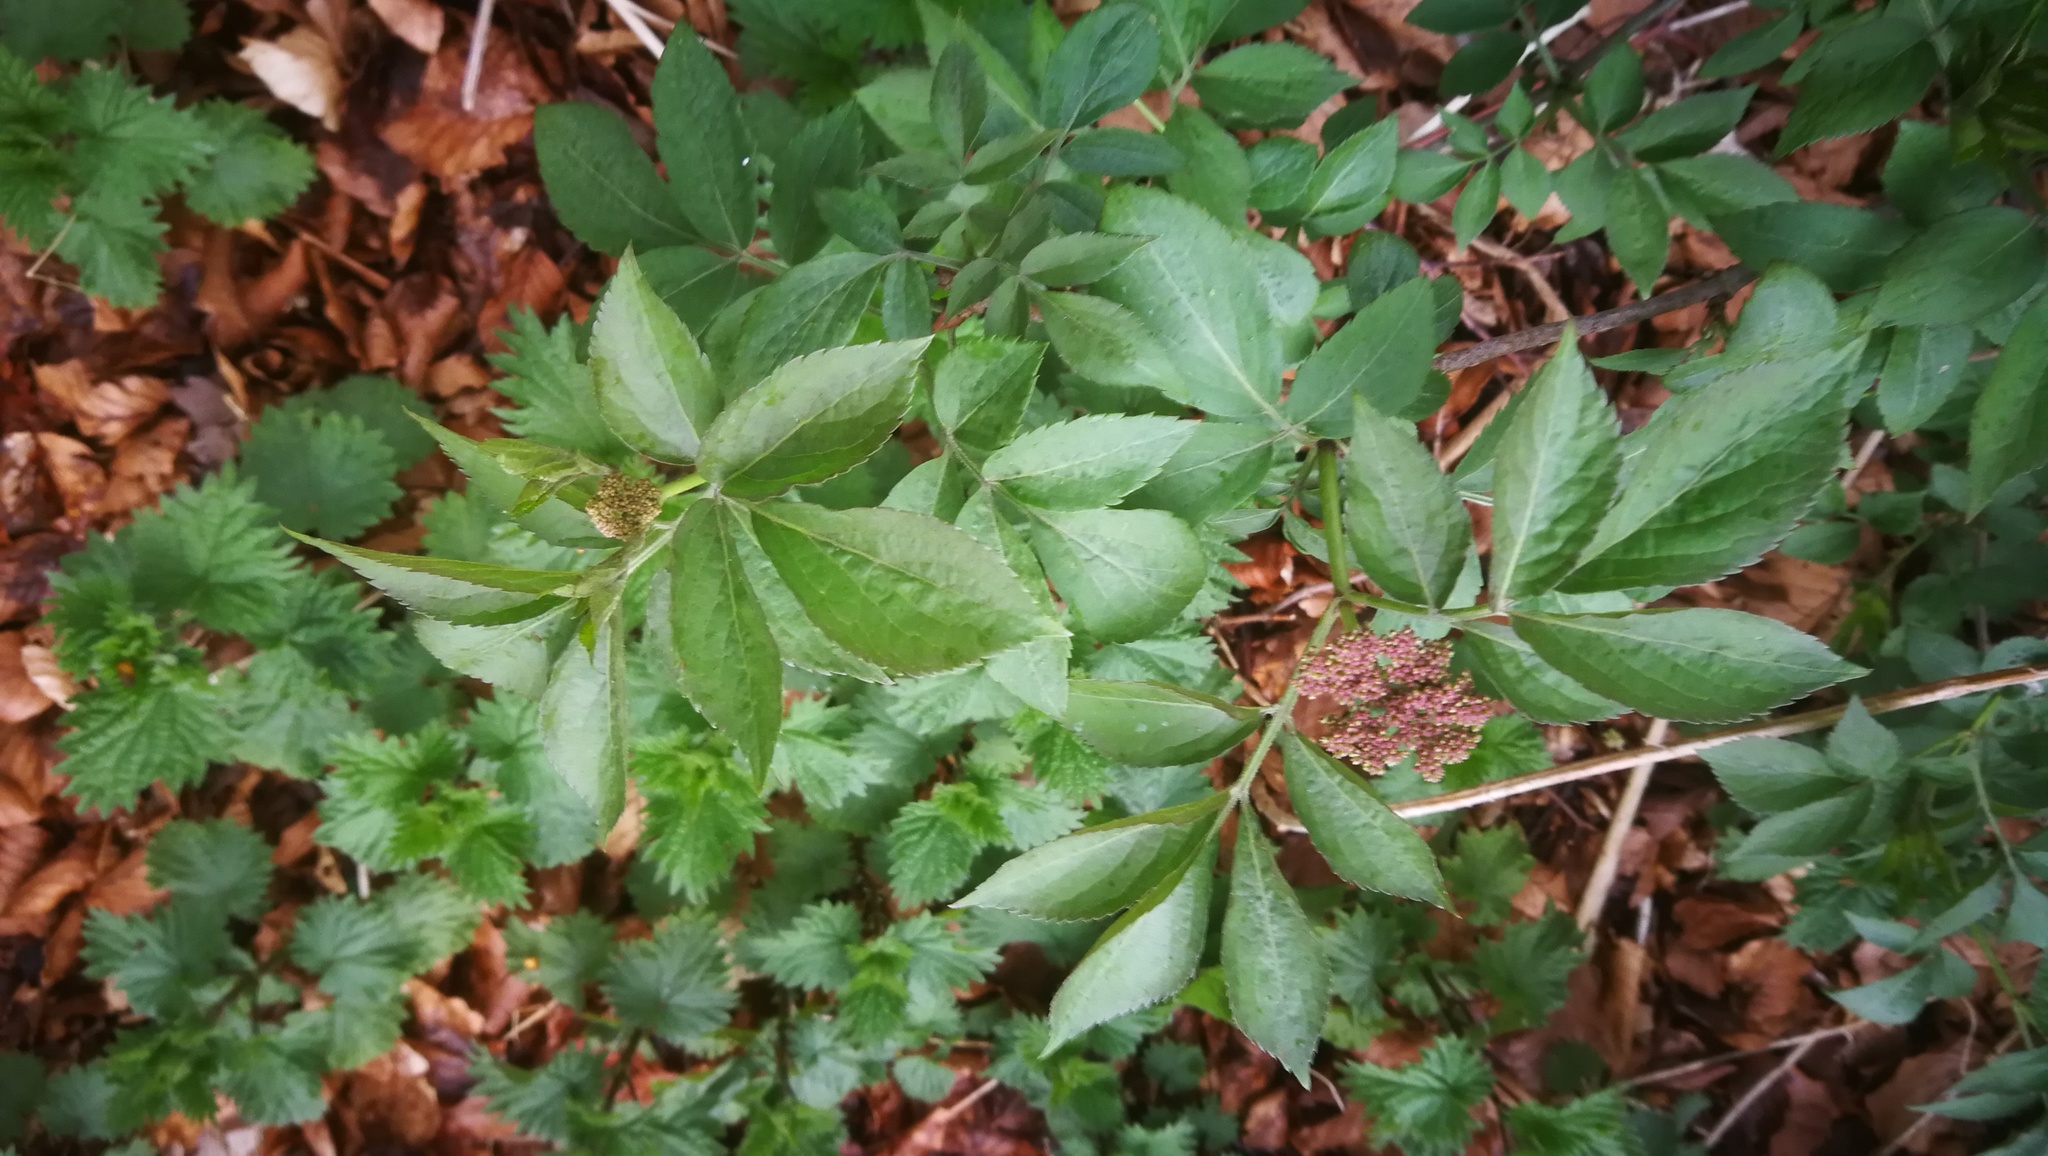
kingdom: Plantae
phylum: Tracheophyta
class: Magnoliopsida
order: Dipsacales
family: Viburnaceae
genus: Sambucus
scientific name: Sambucus nigra
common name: Elder
